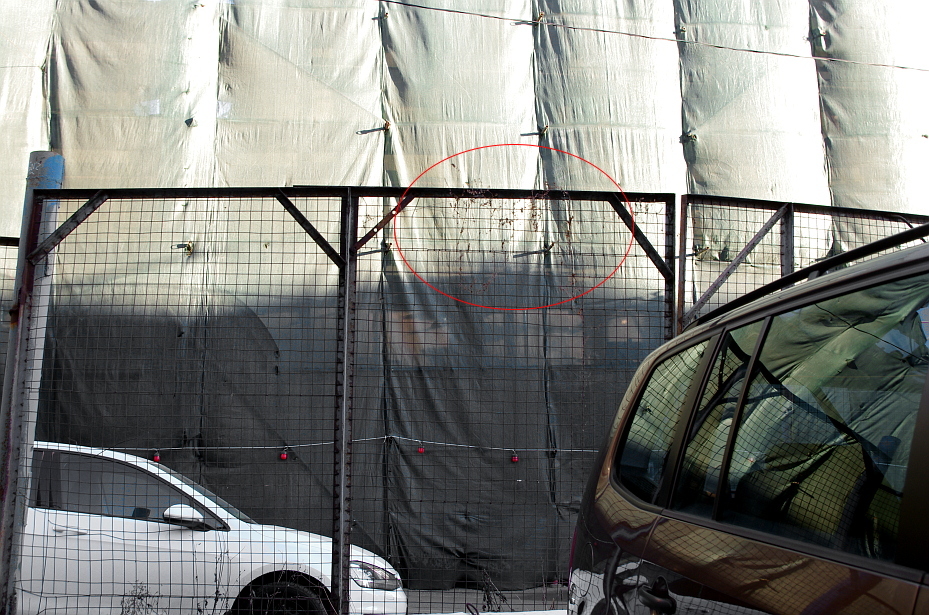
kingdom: Plantae
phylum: Tracheophyta
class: Magnoliopsida
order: Caryophyllales
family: Polygonaceae
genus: Fallopia
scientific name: Fallopia dumetorum
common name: Copse-bindweed
